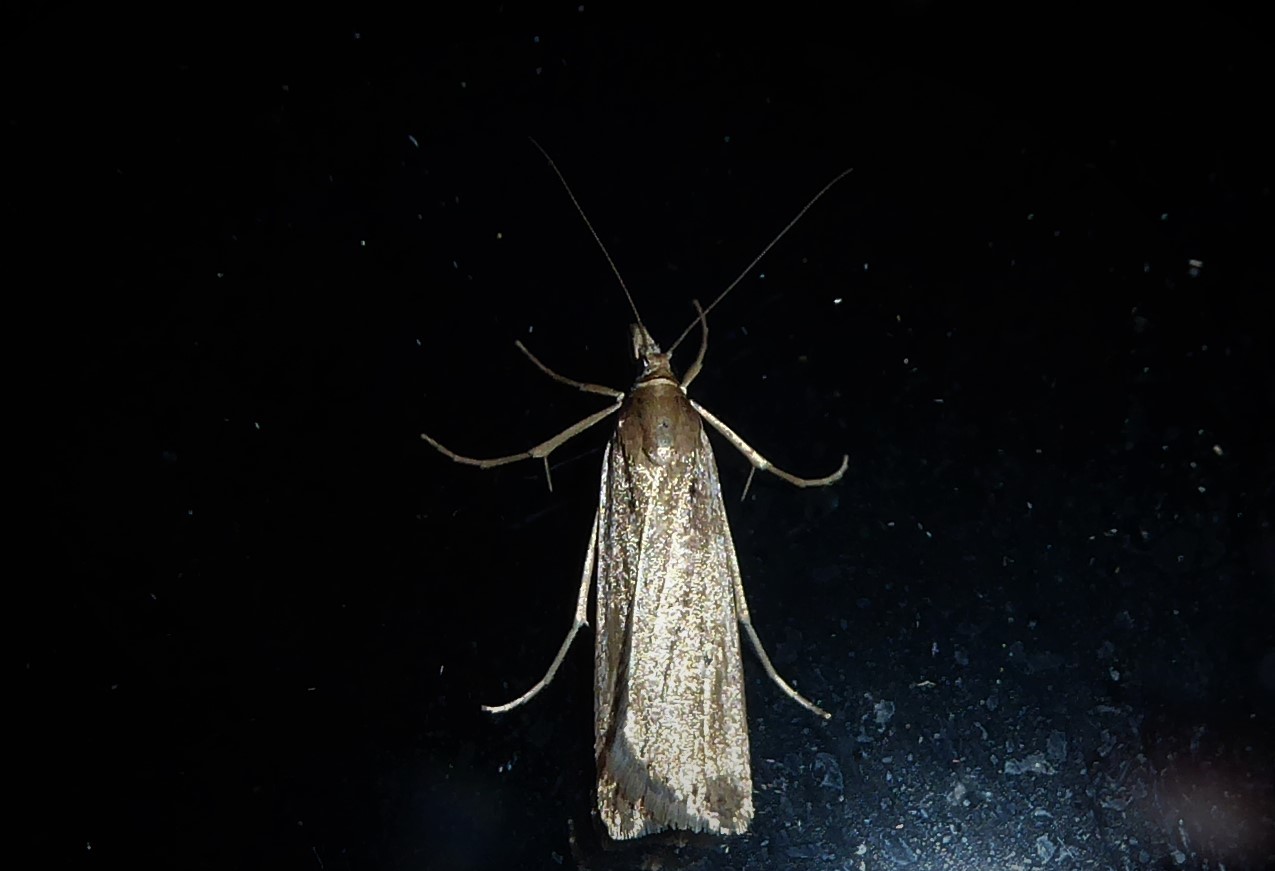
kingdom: Animalia
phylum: Arthropoda
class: Insecta
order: Lepidoptera
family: Crambidae
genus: Eudonia
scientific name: Eudonia sabulosella
